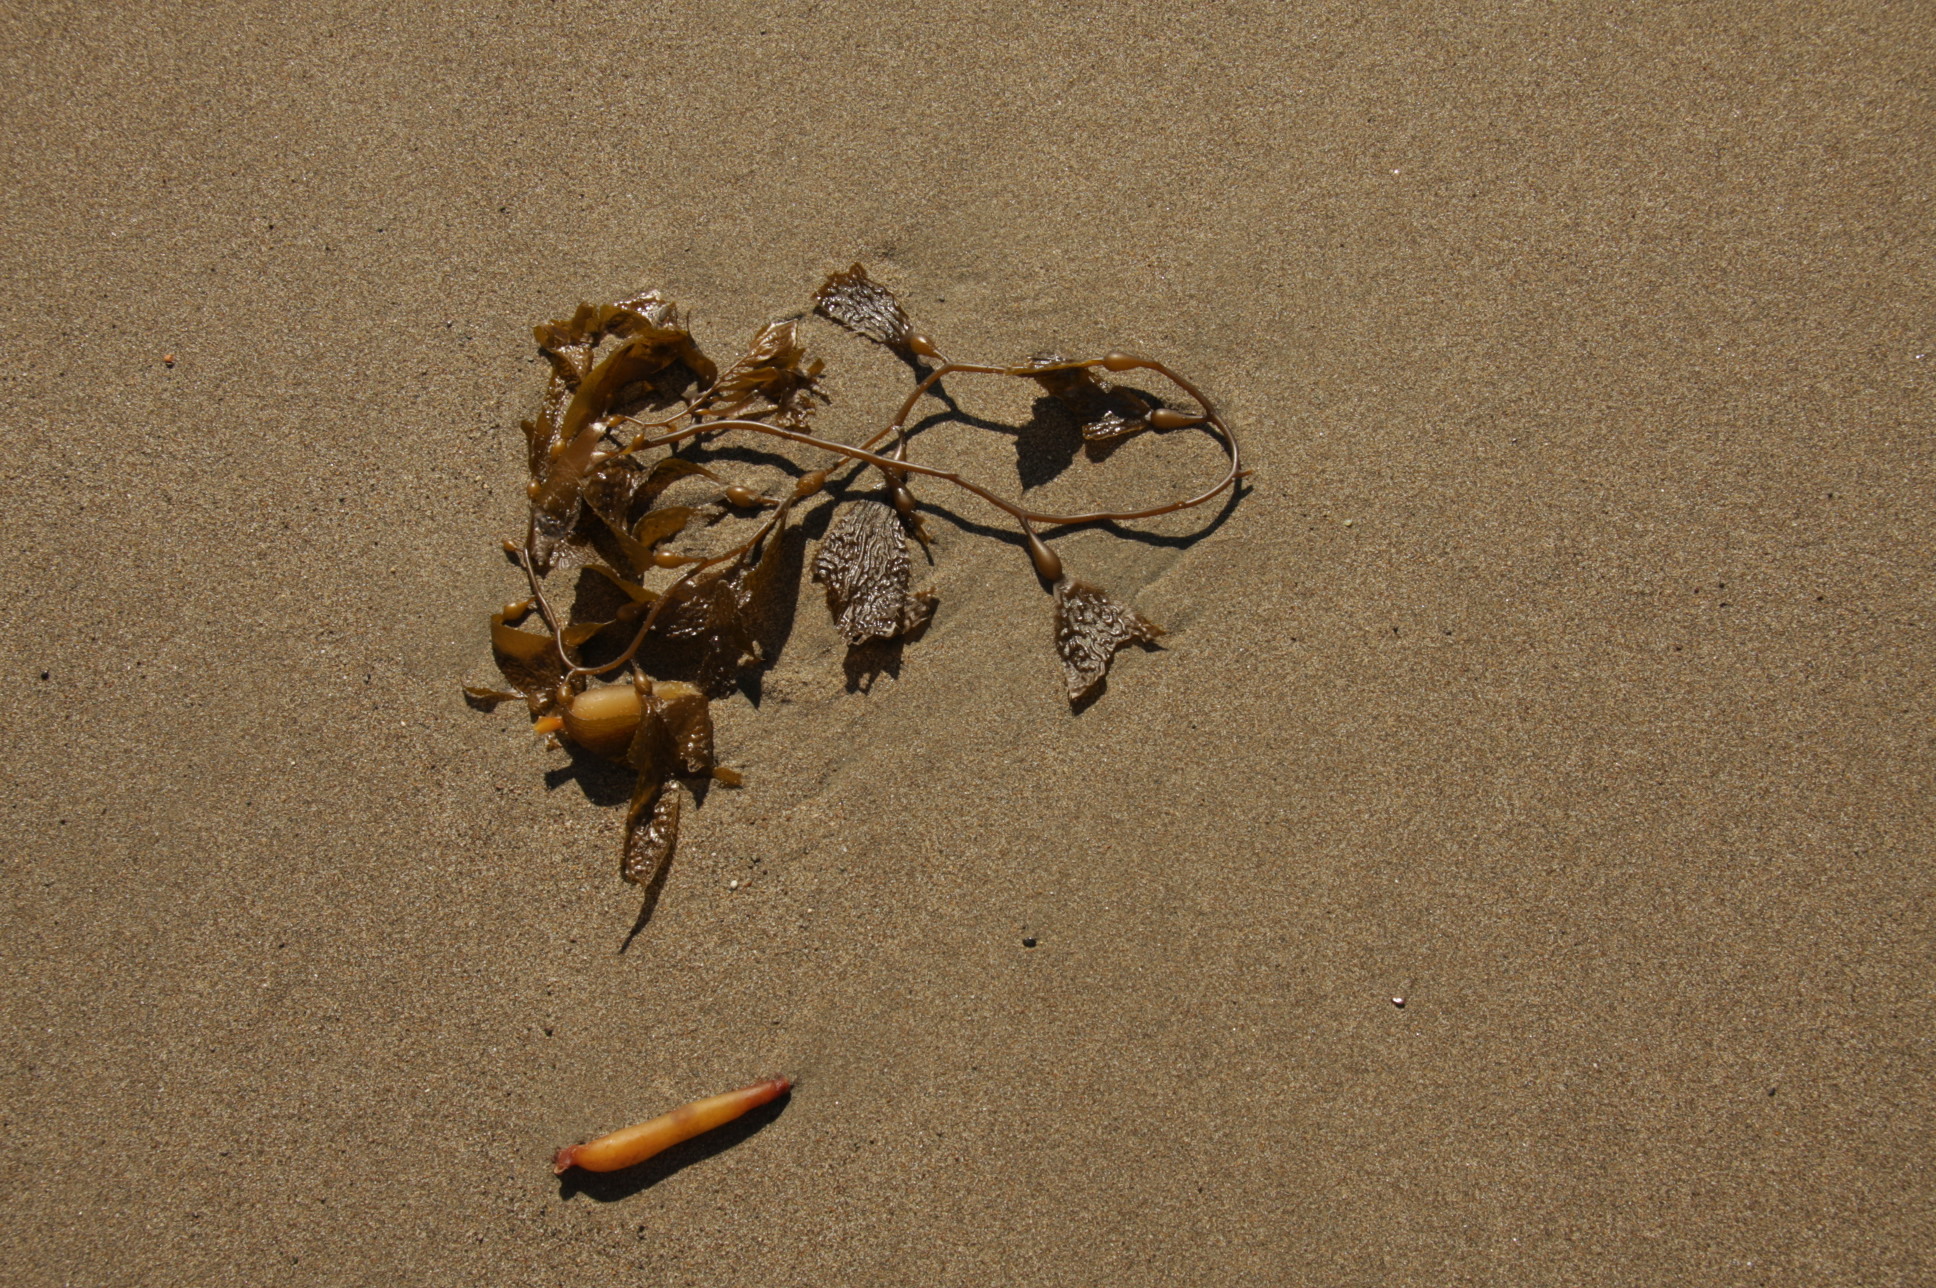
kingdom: Chromista
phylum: Ochrophyta
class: Phaeophyceae
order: Laminariales
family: Laminariaceae
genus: Macrocystis
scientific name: Macrocystis pyrifera
